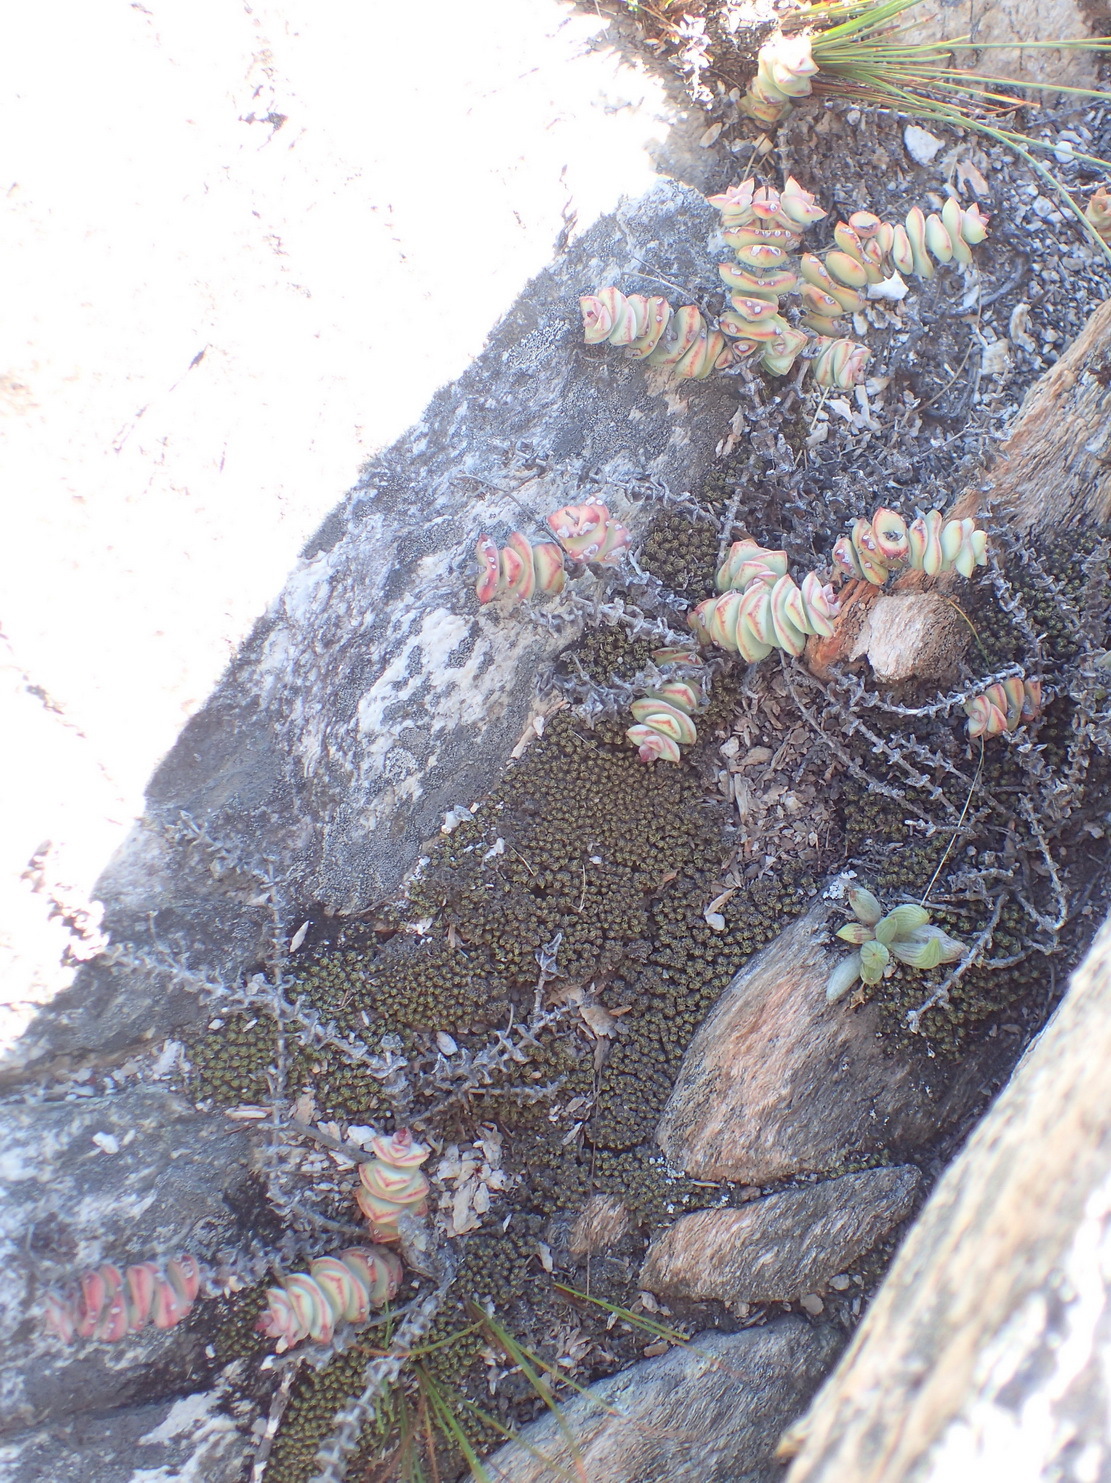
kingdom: Plantae
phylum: Tracheophyta
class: Magnoliopsida
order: Saxifragales
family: Crassulaceae
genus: Crassula
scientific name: Crassula perforata
